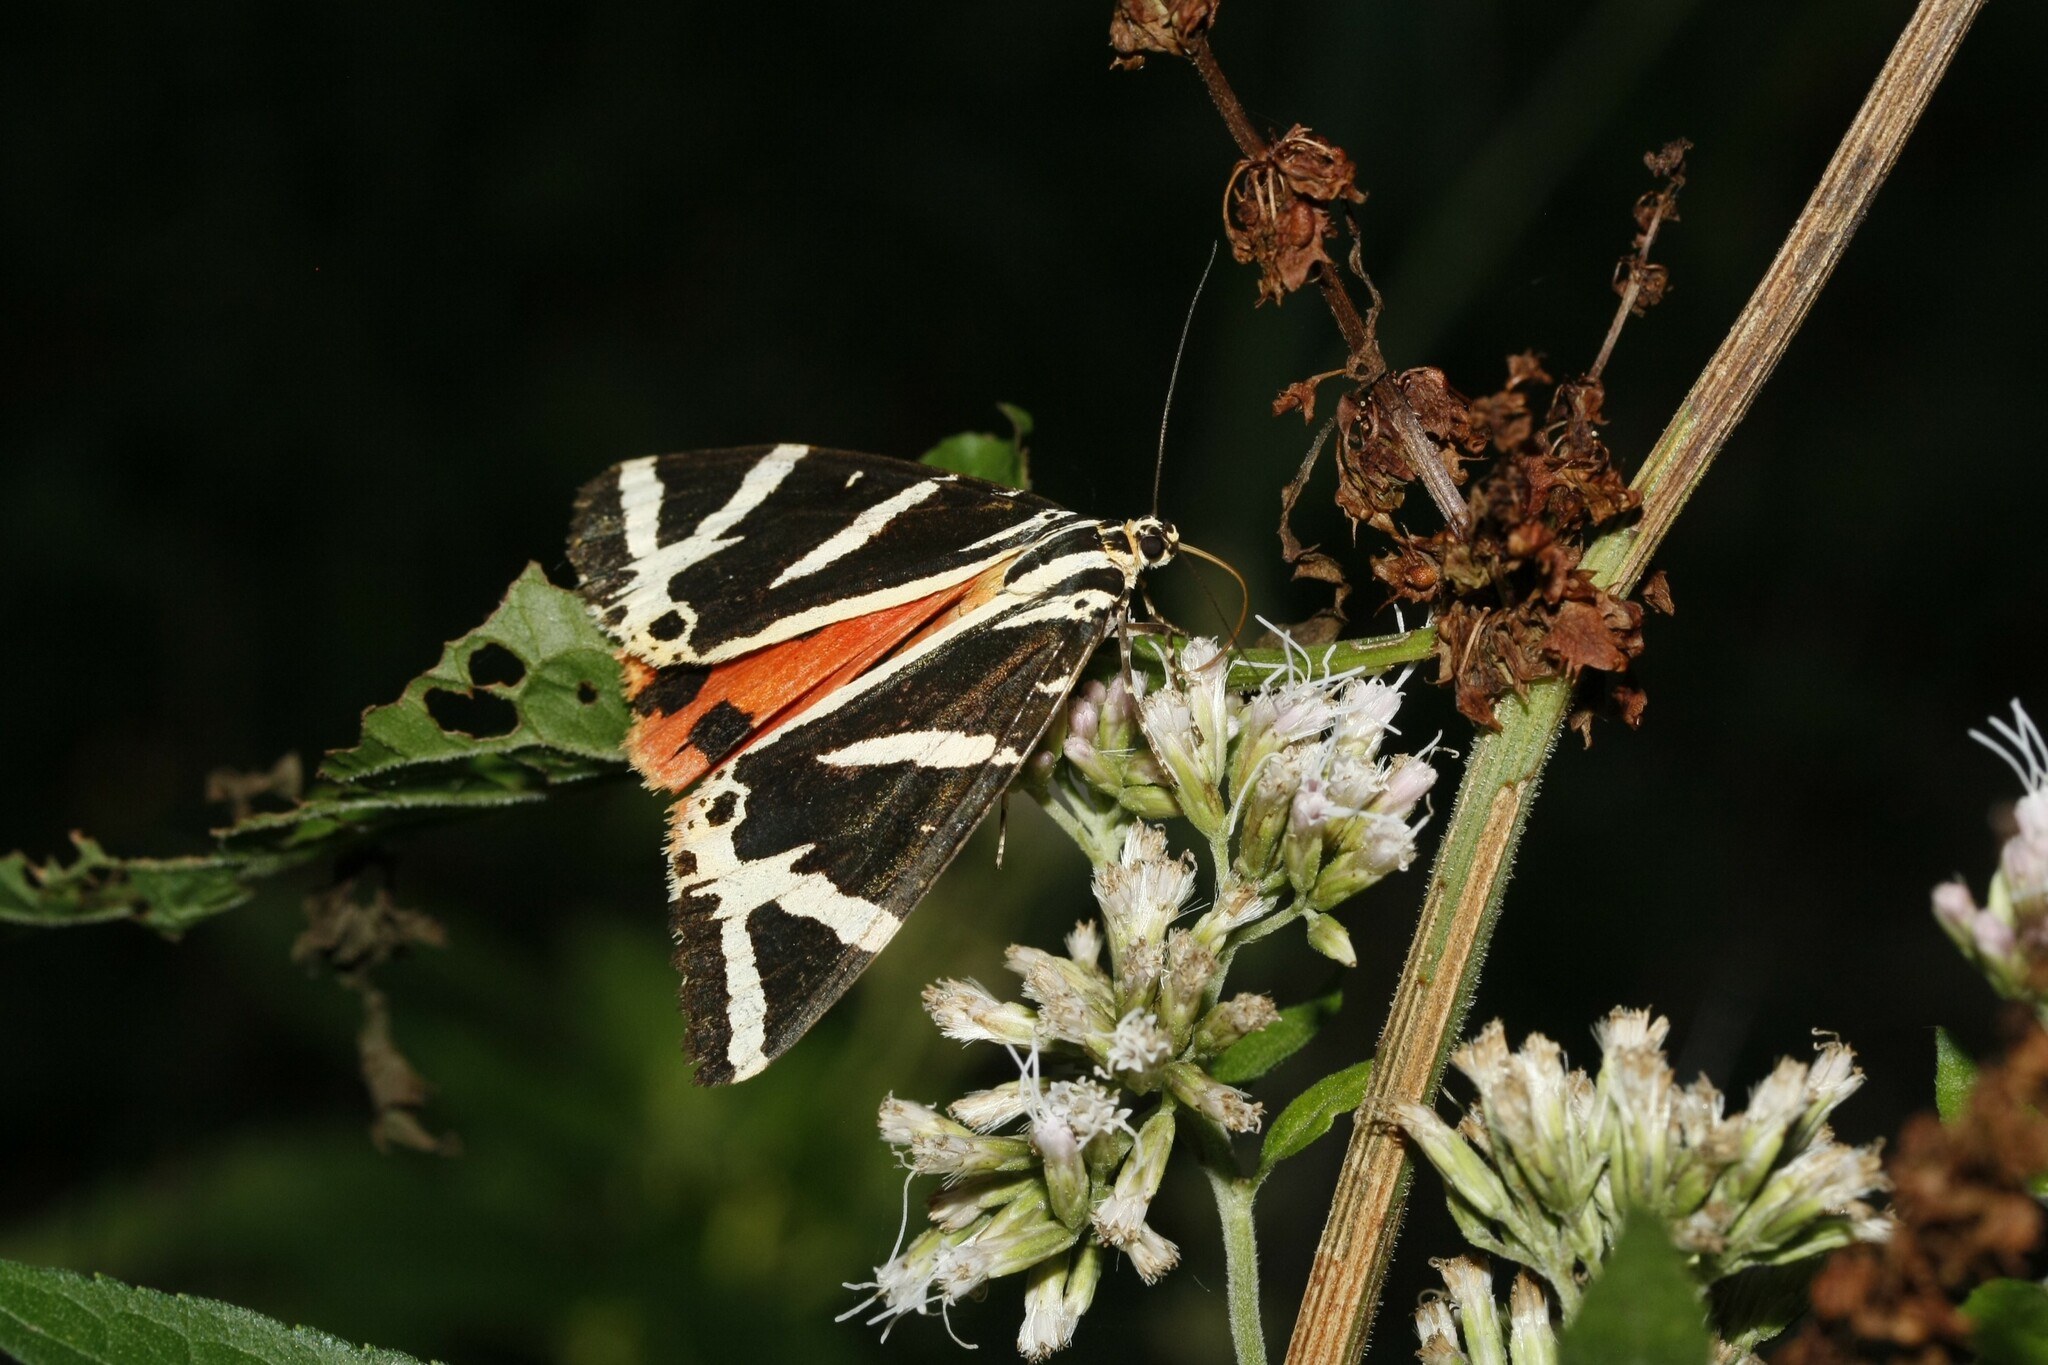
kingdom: Animalia
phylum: Arthropoda
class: Insecta
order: Lepidoptera
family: Erebidae
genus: Euplagia
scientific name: Euplagia quadripunctaria
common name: Jersey tiger
